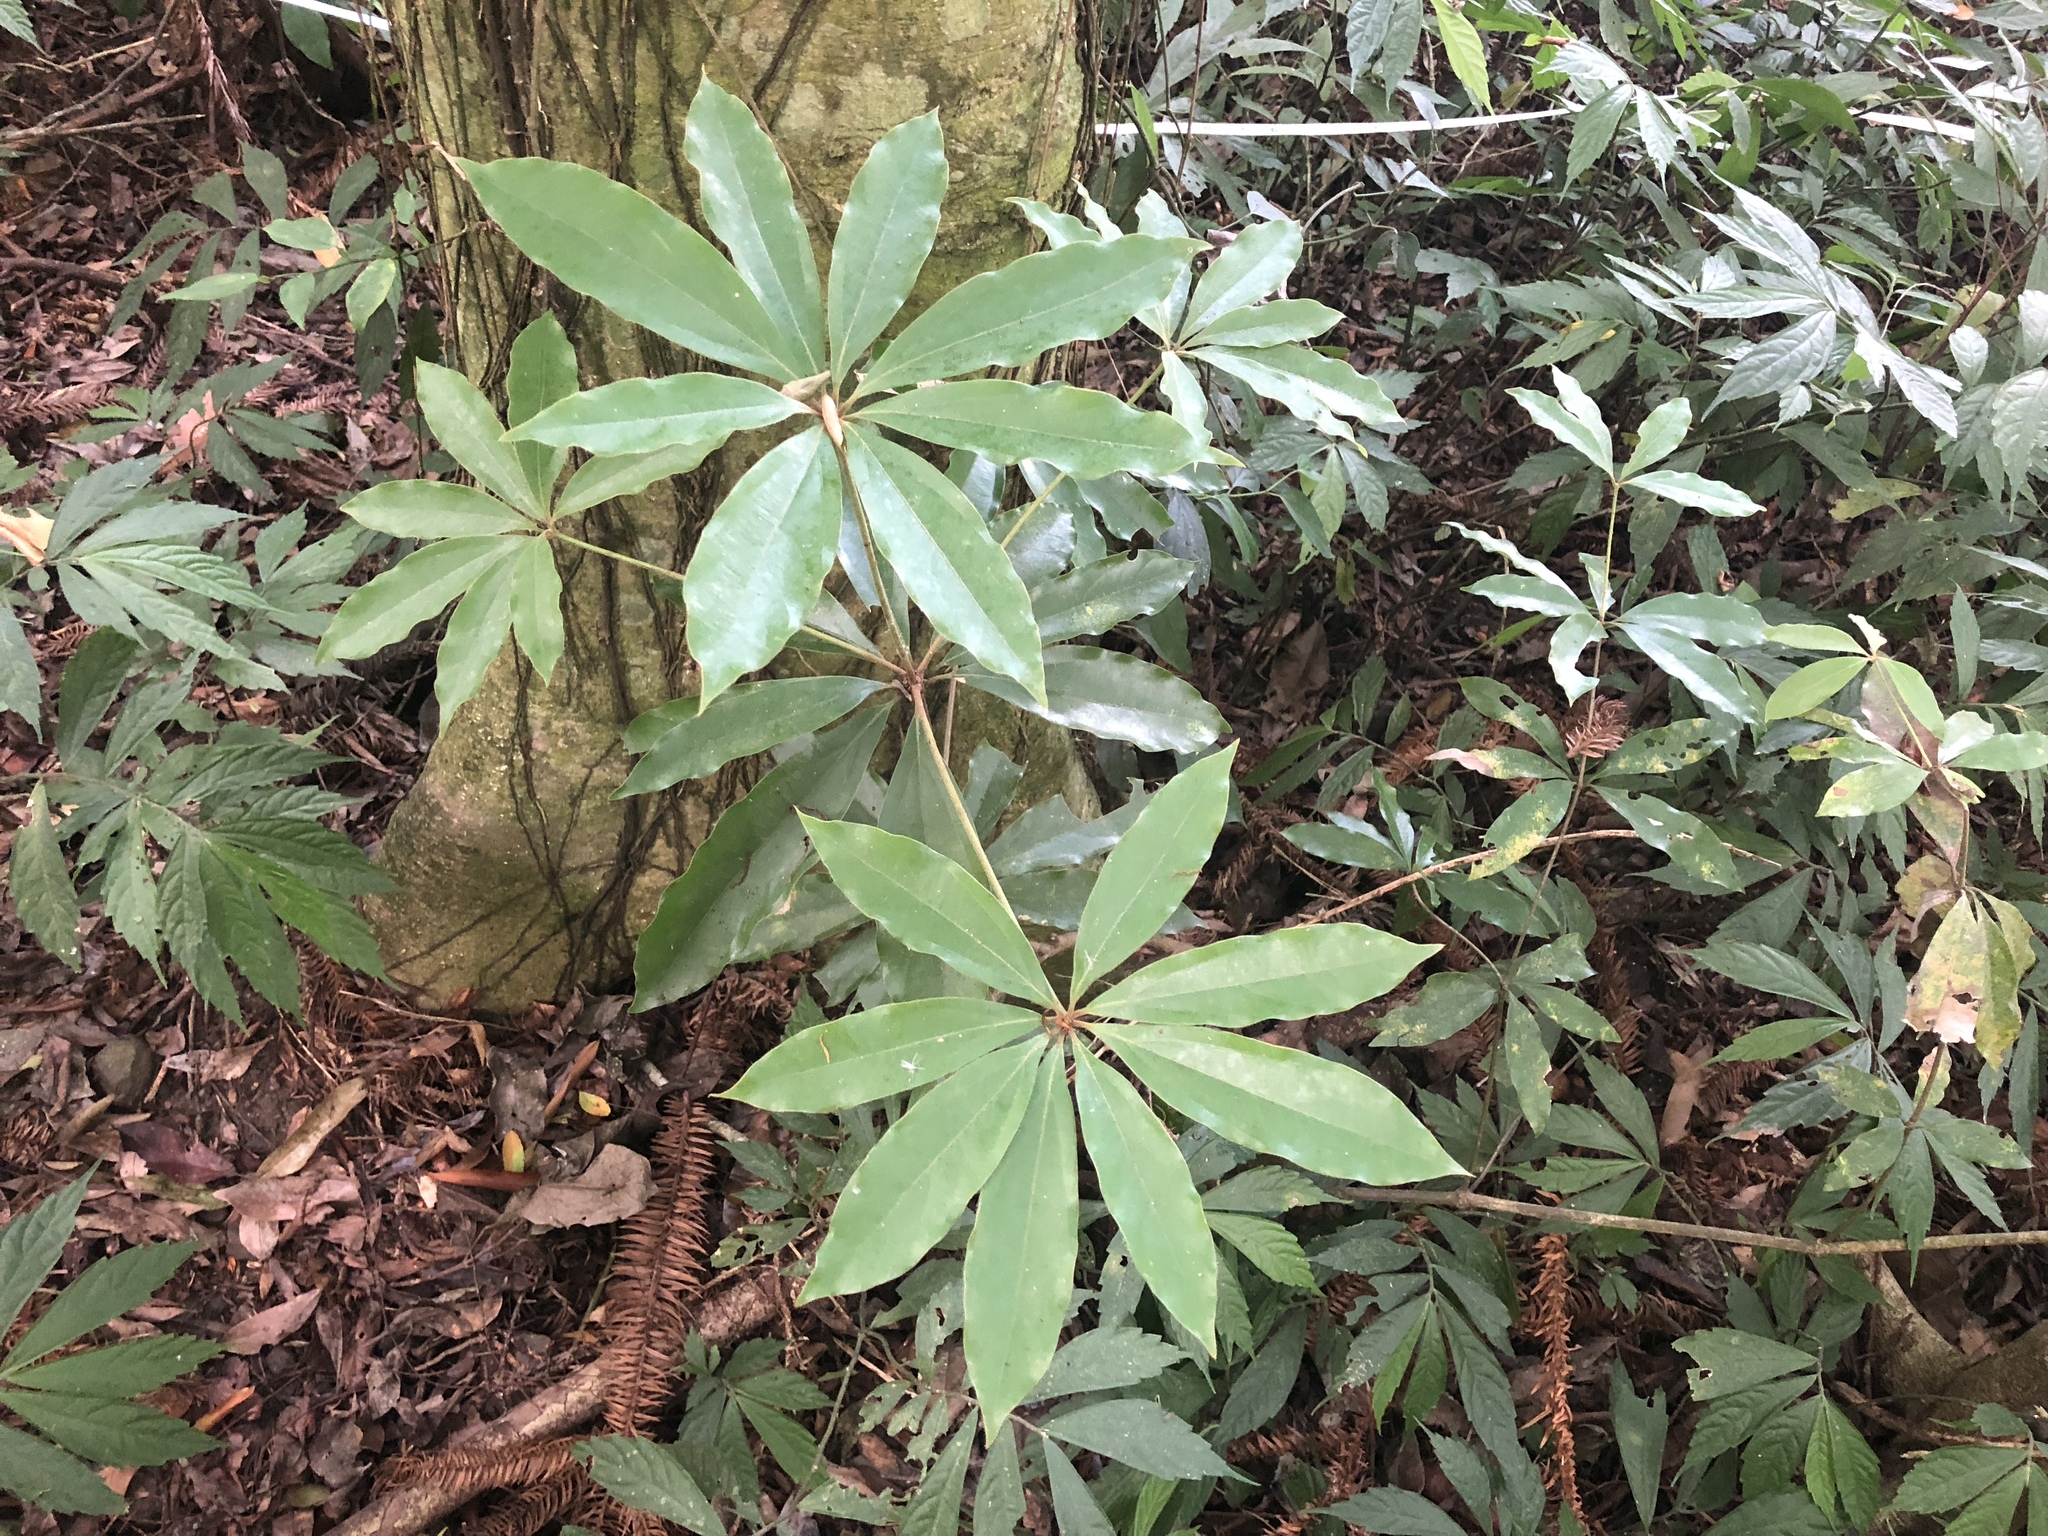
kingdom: Plantae
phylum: Tracheophyta
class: Magnoliopsida
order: Laurales
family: Lauraceae
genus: Neolitsea
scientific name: Neolitsea konishii
